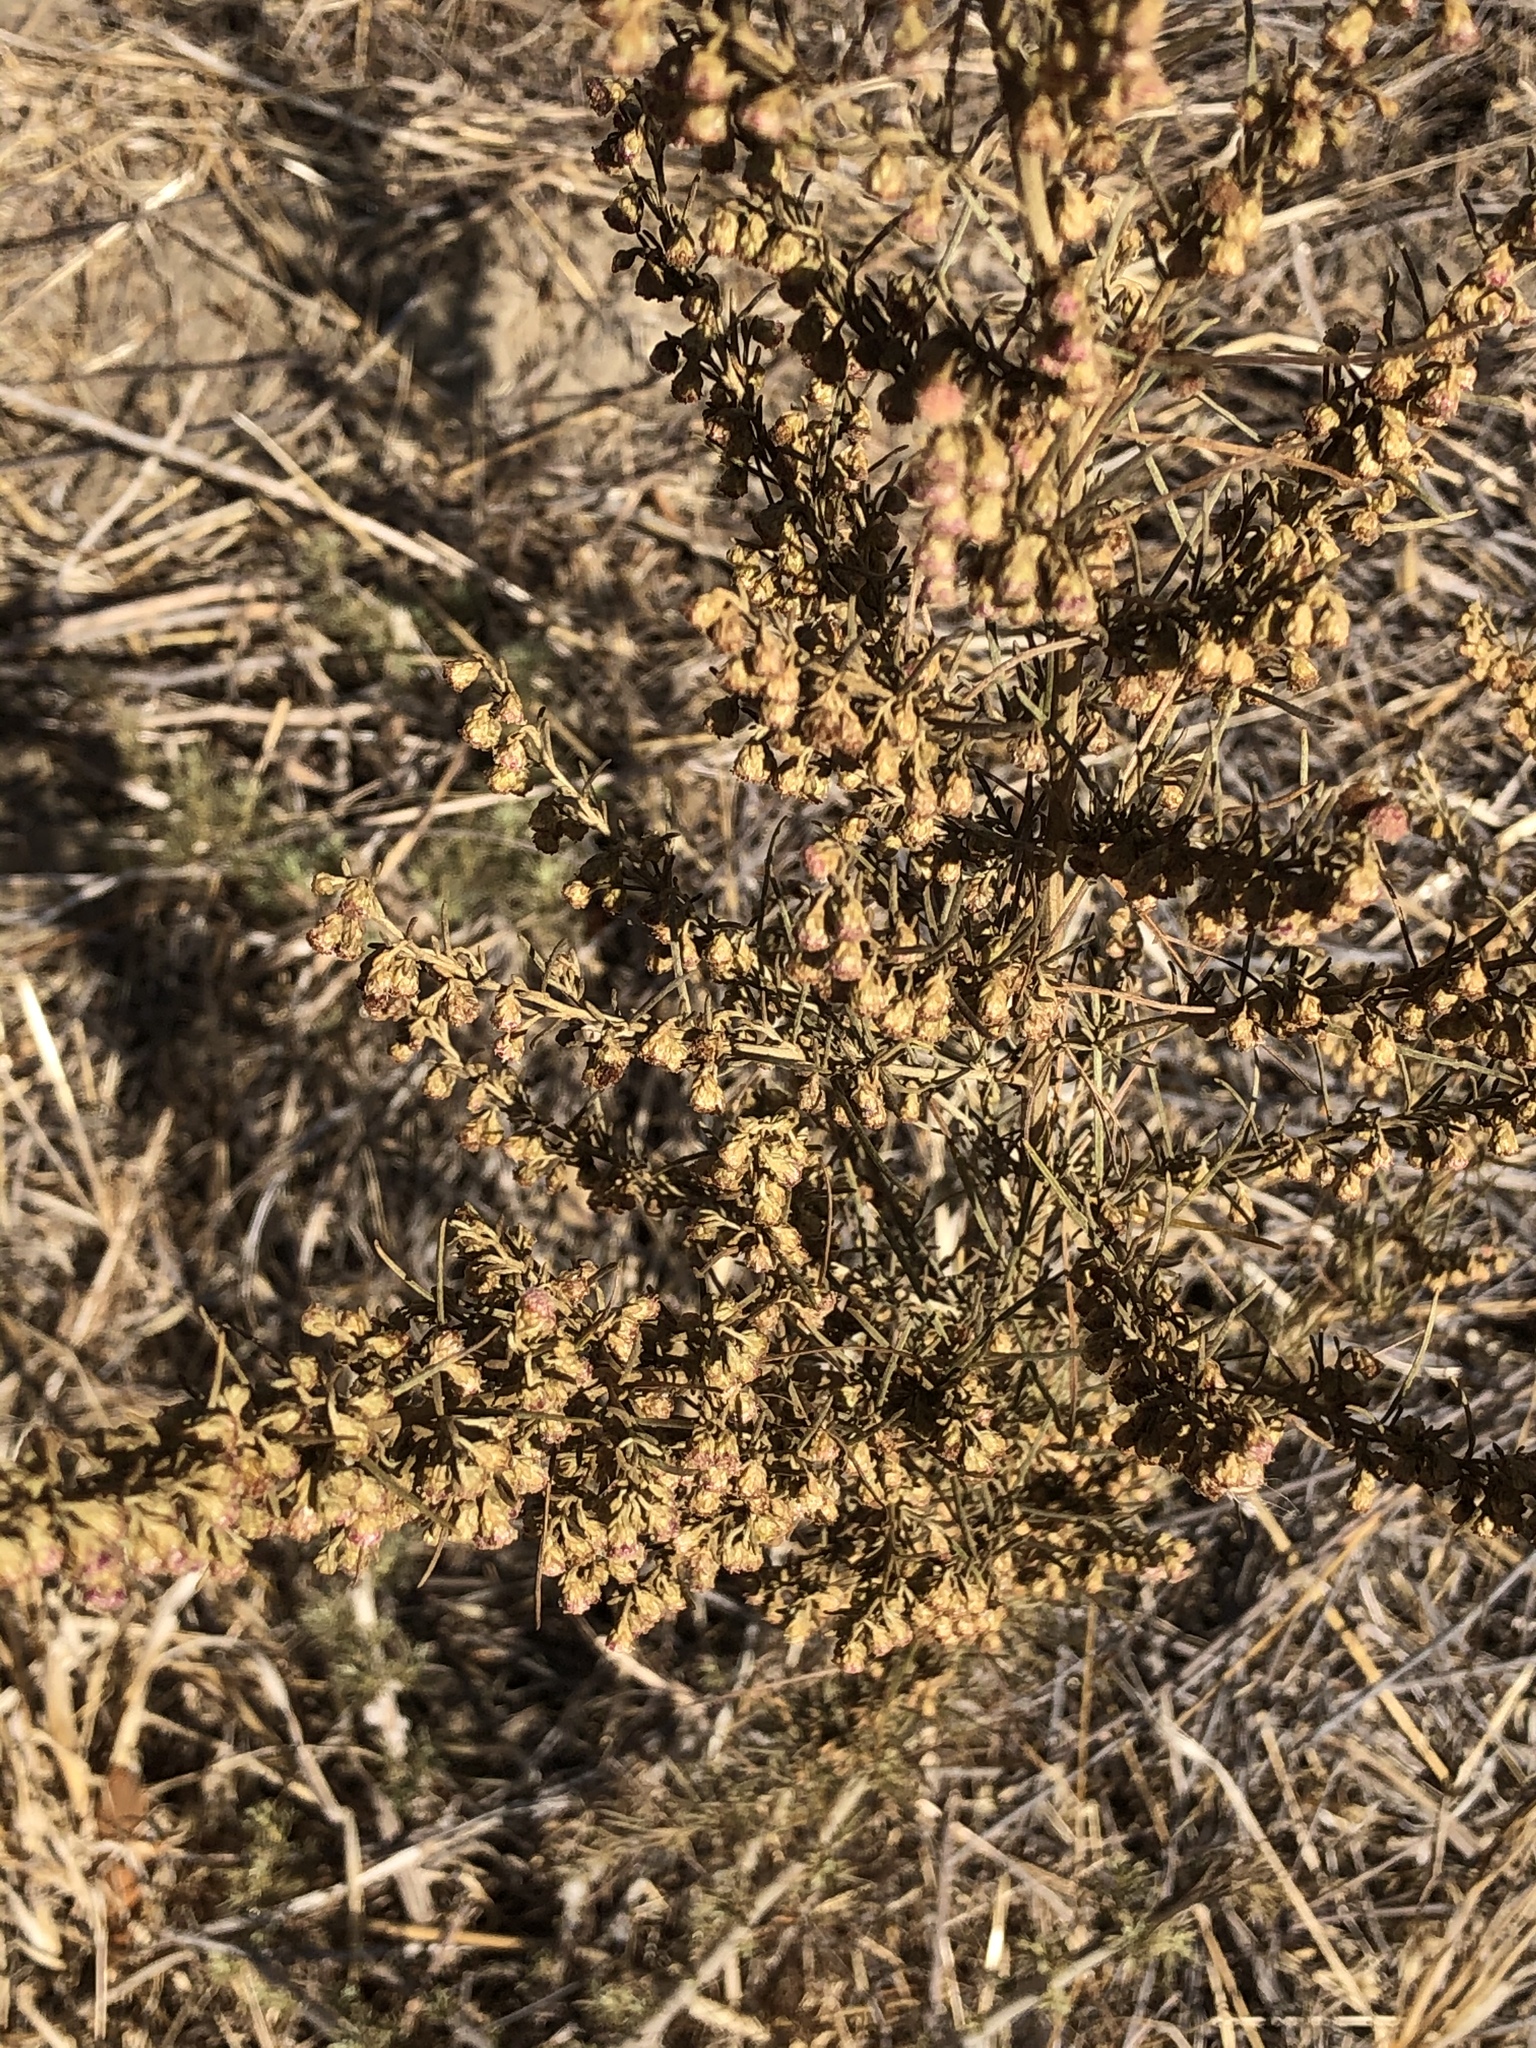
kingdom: Plantae
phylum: Tracheophyta
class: Magnoliopsida
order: Asterales
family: Asteraceae
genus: Artemisia
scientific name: Artemisia californica
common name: California sagebrush
